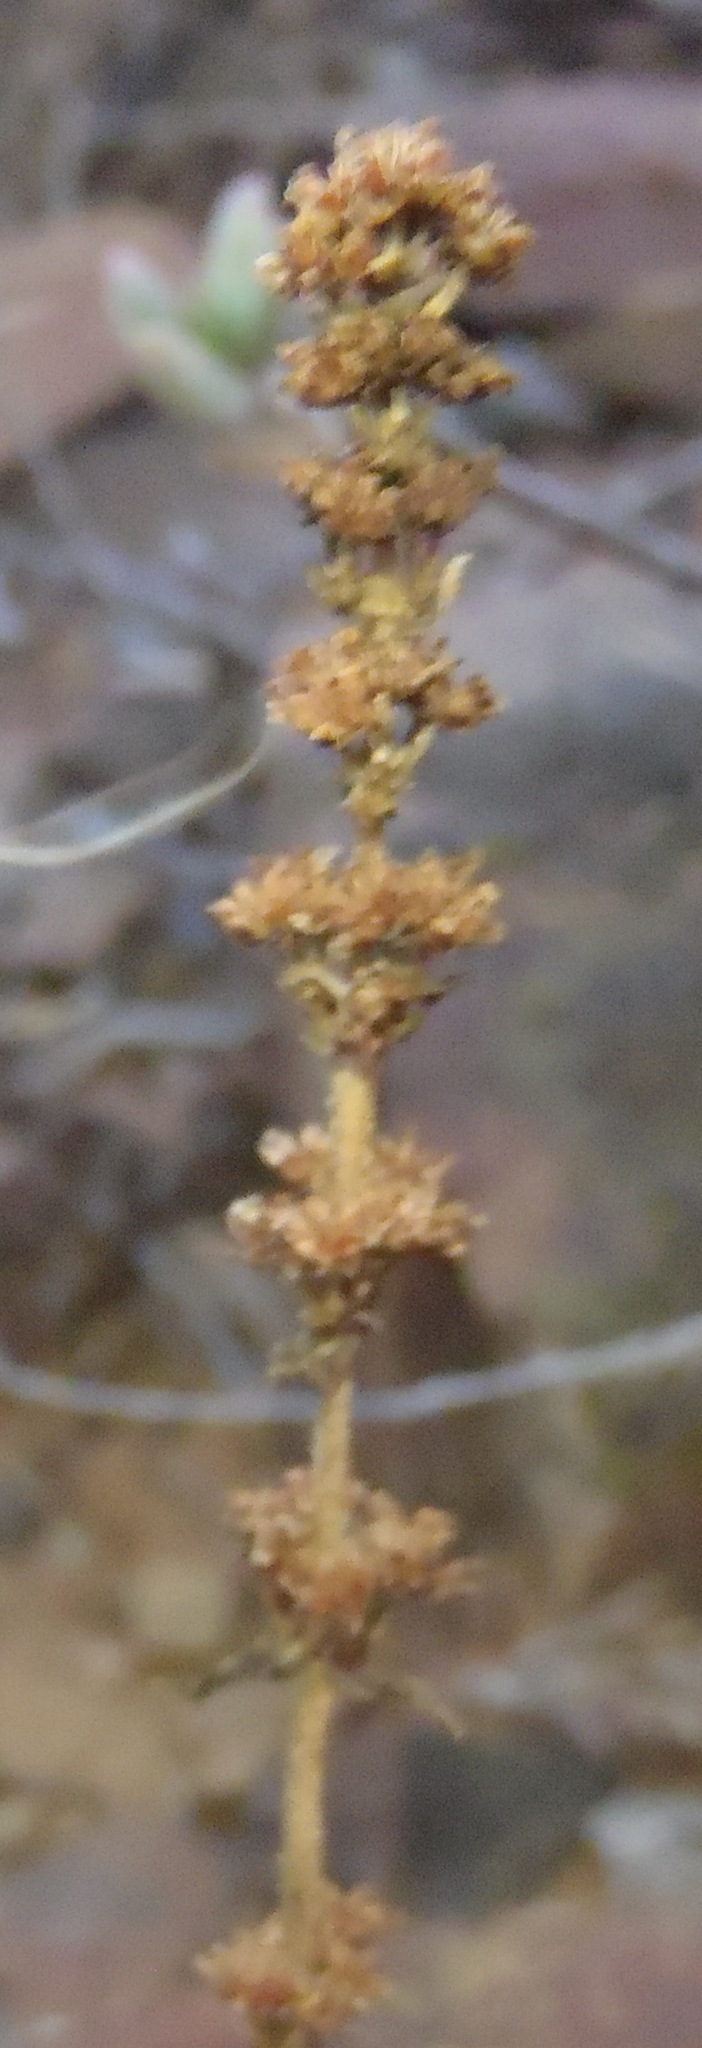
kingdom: Plantae
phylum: Tracheophyta
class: Magnoliopsida
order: Saxifragales
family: Crassulaceae
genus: Crassula
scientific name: Crassula capitella
